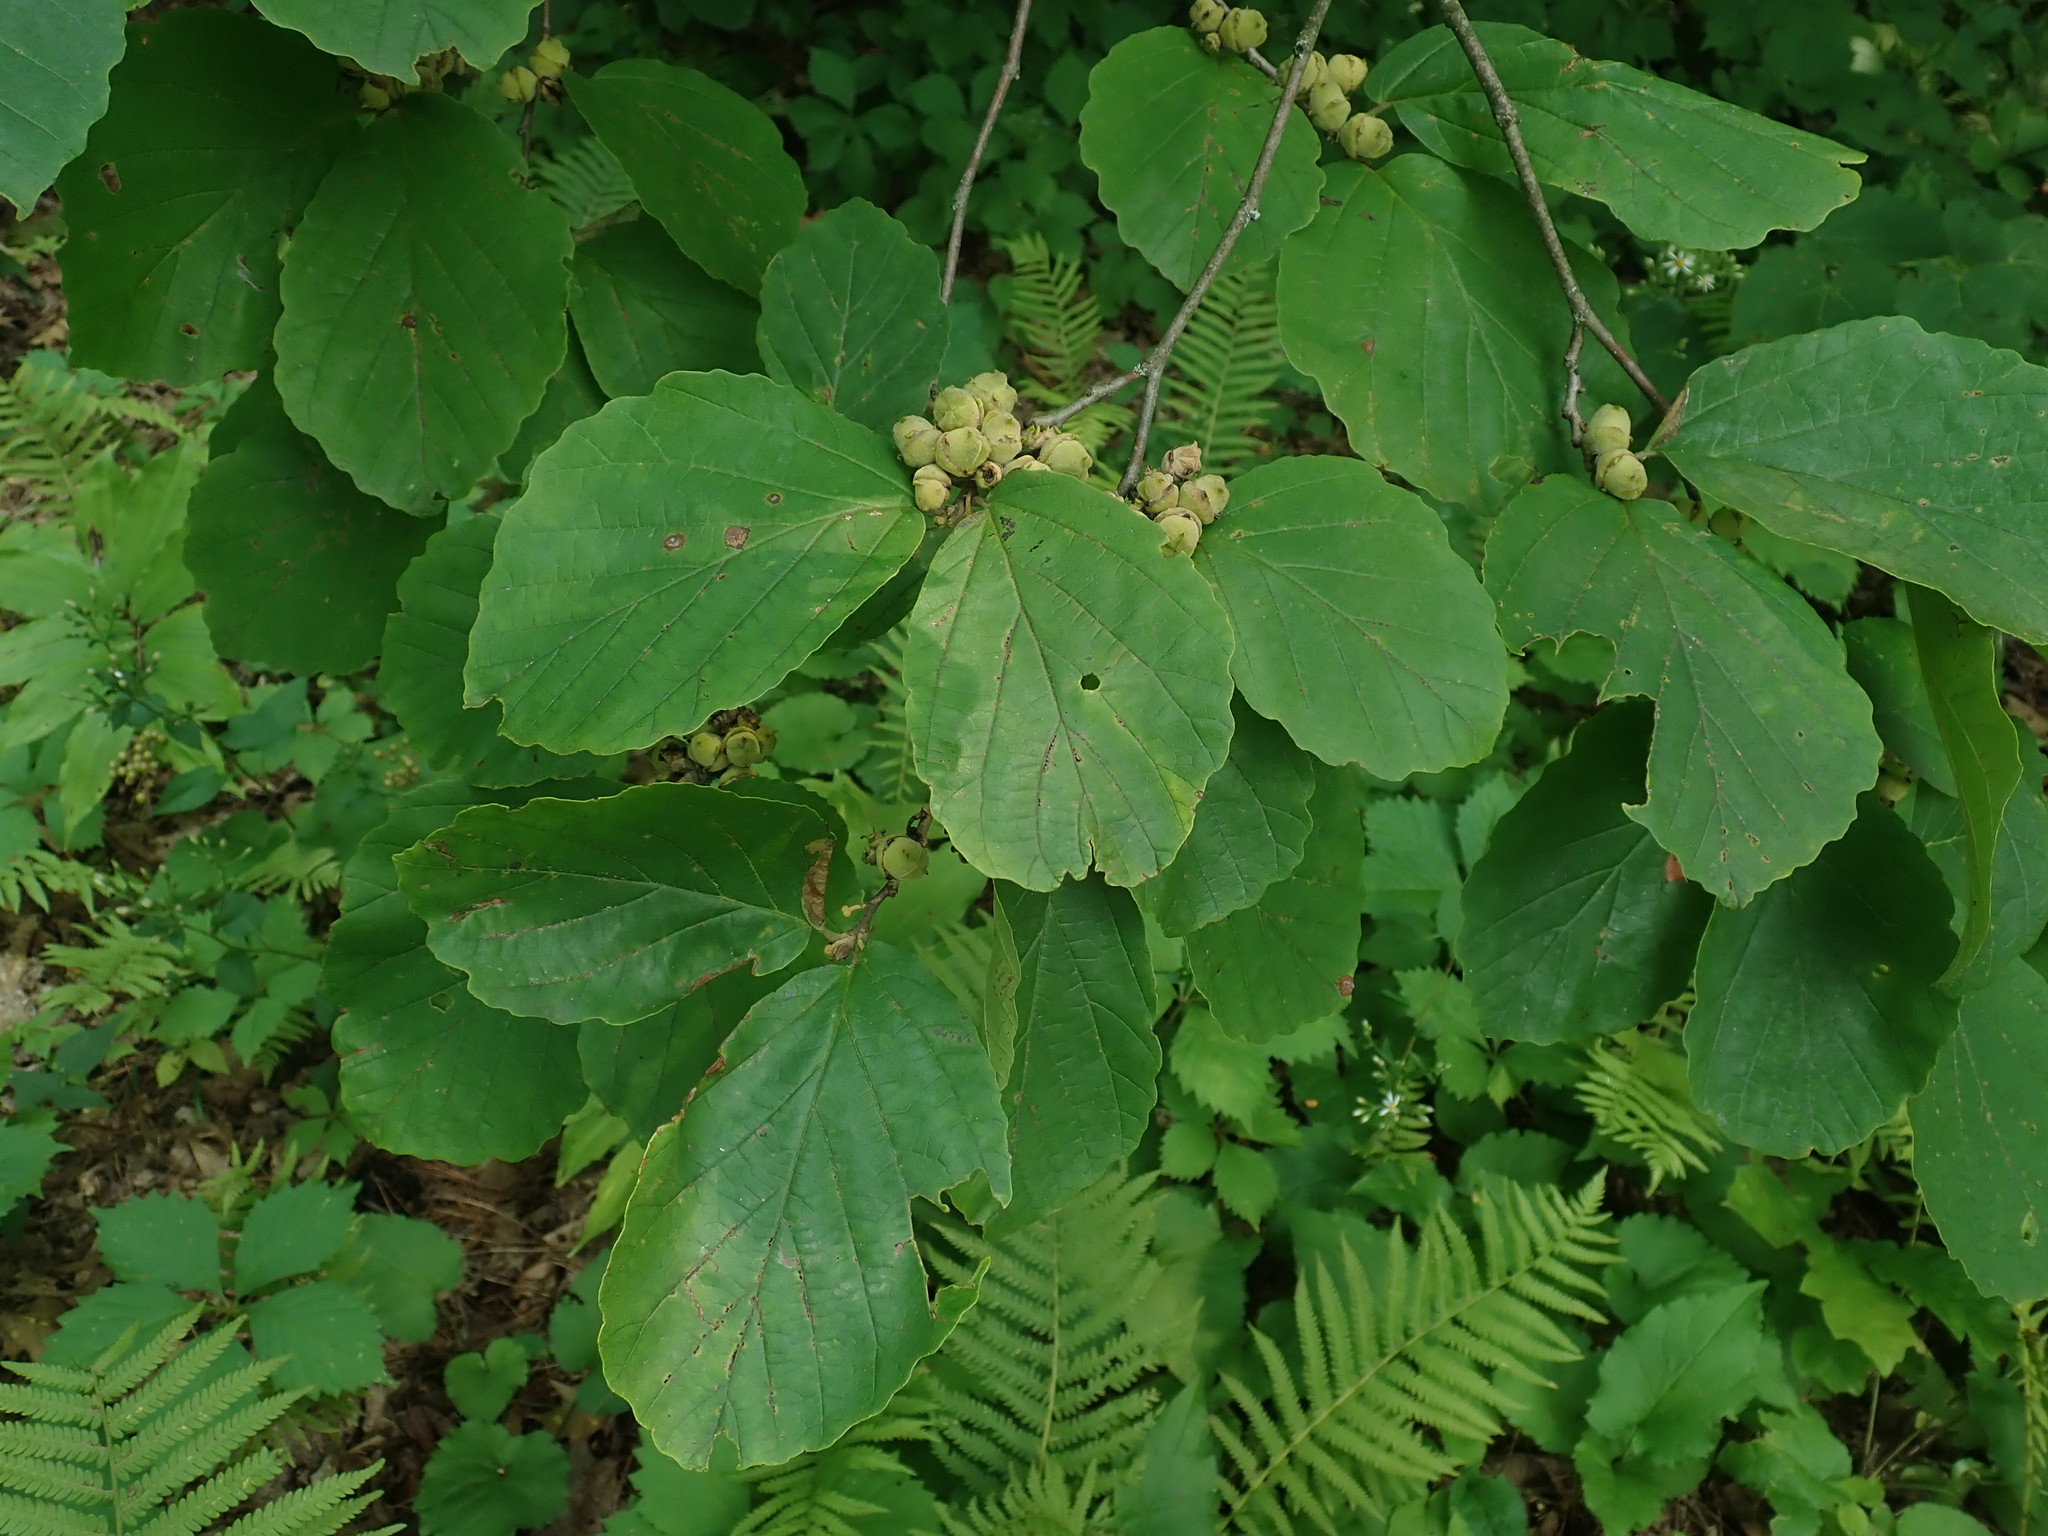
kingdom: Plantae
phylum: Tracheophyta
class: Magnoliopsida
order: Saxifragales
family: Hamamelidaceae
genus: Hamamelis
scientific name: Hamamelis virginiana
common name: Witch-hazel
